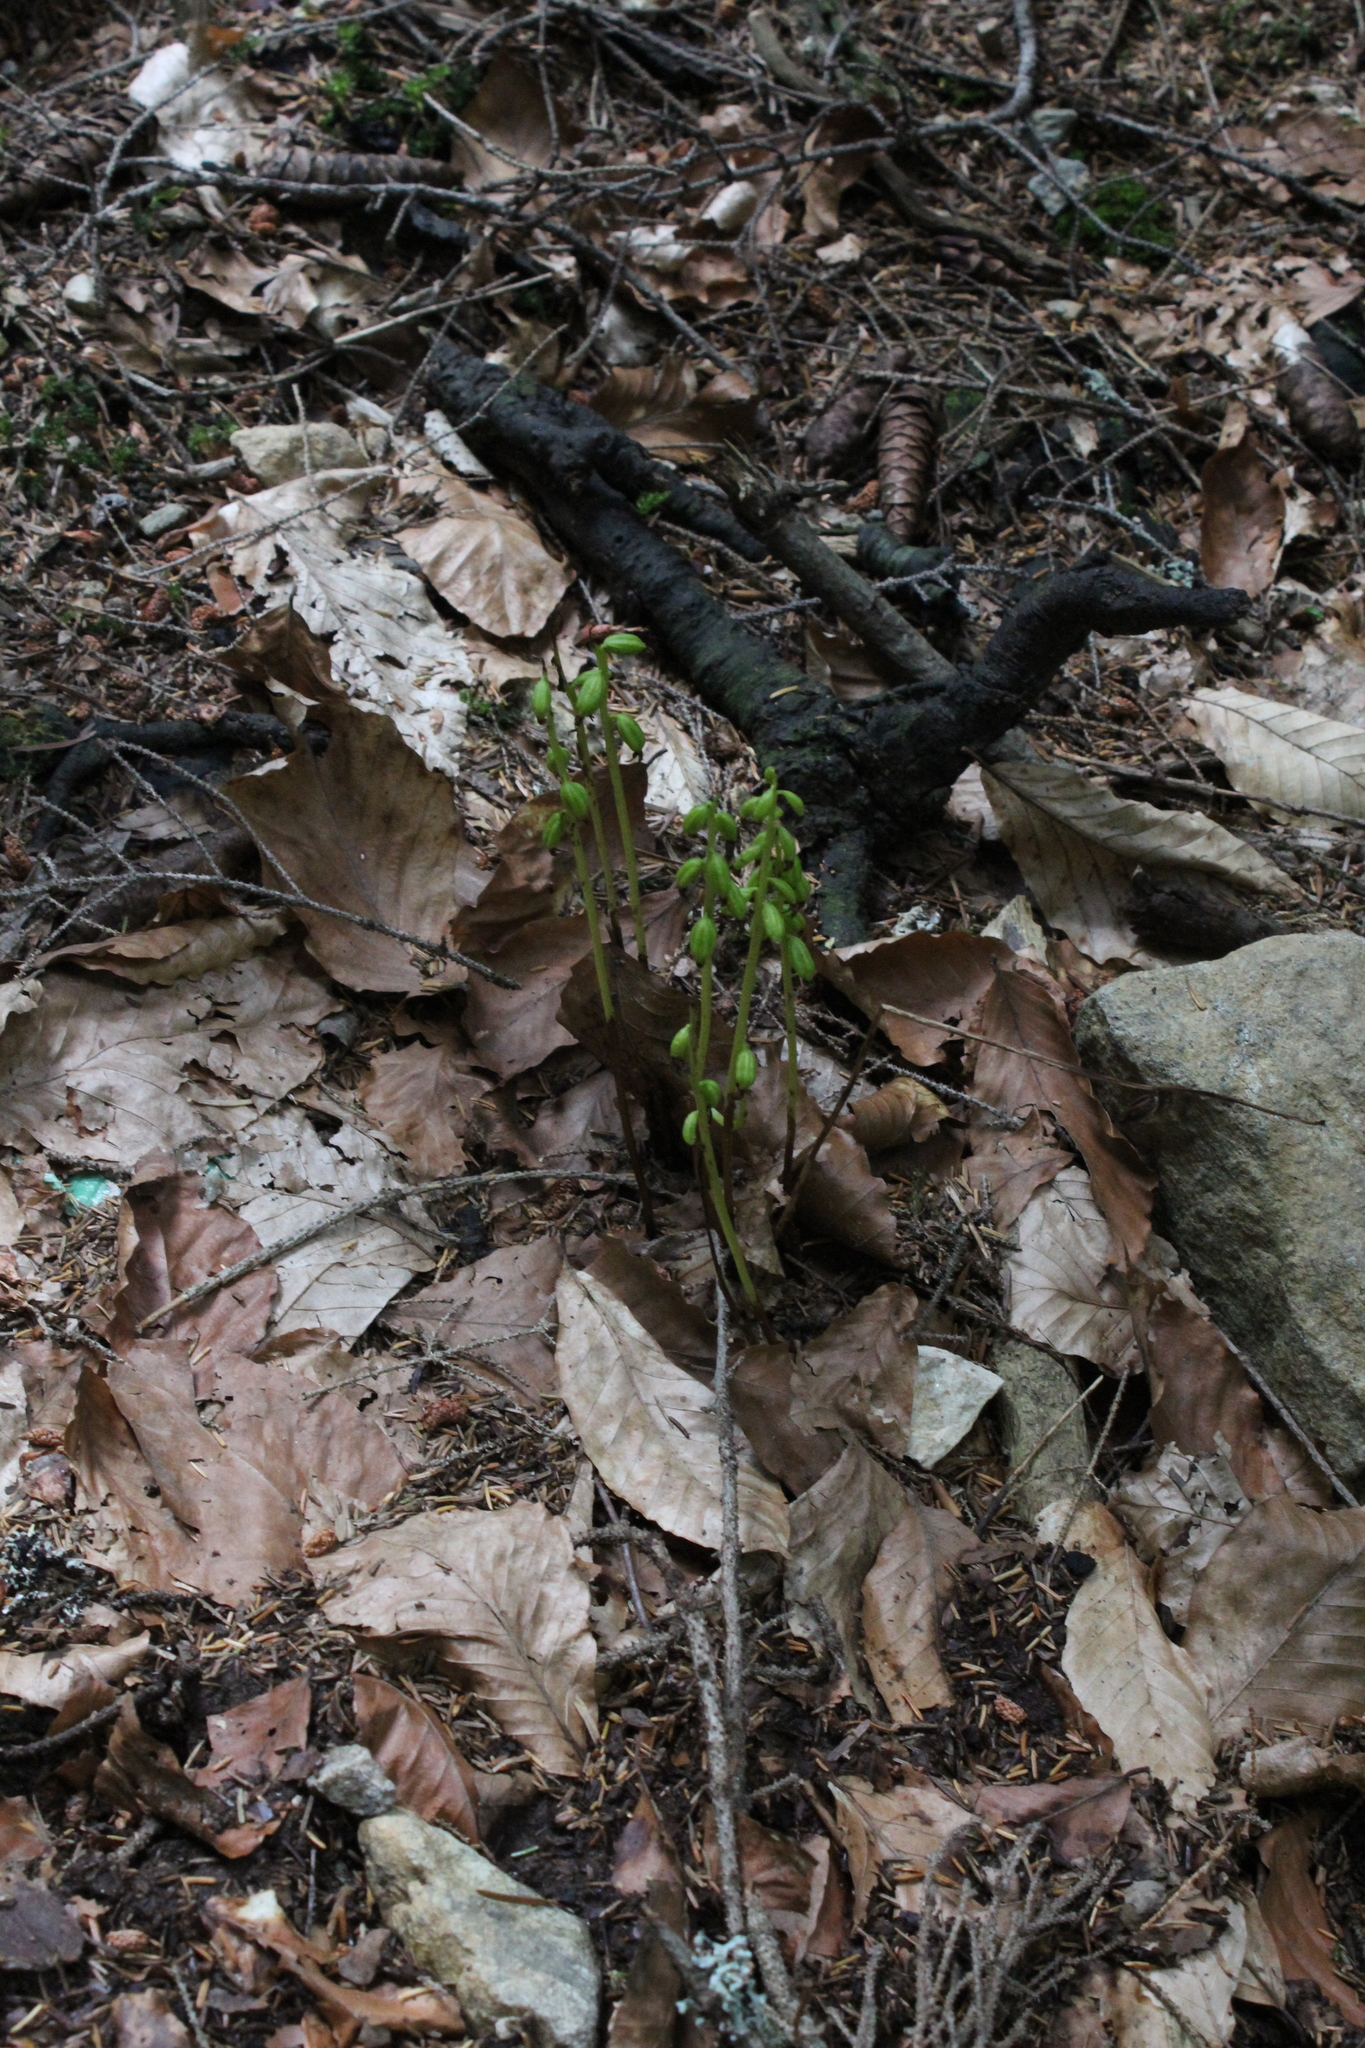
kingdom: Plantae
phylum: Tracheophyta
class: Liliopsida
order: Asparagales
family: Orchidaceae
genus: Corallorhiza
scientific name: Corallorhiza trifida
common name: Yellow coralroot
